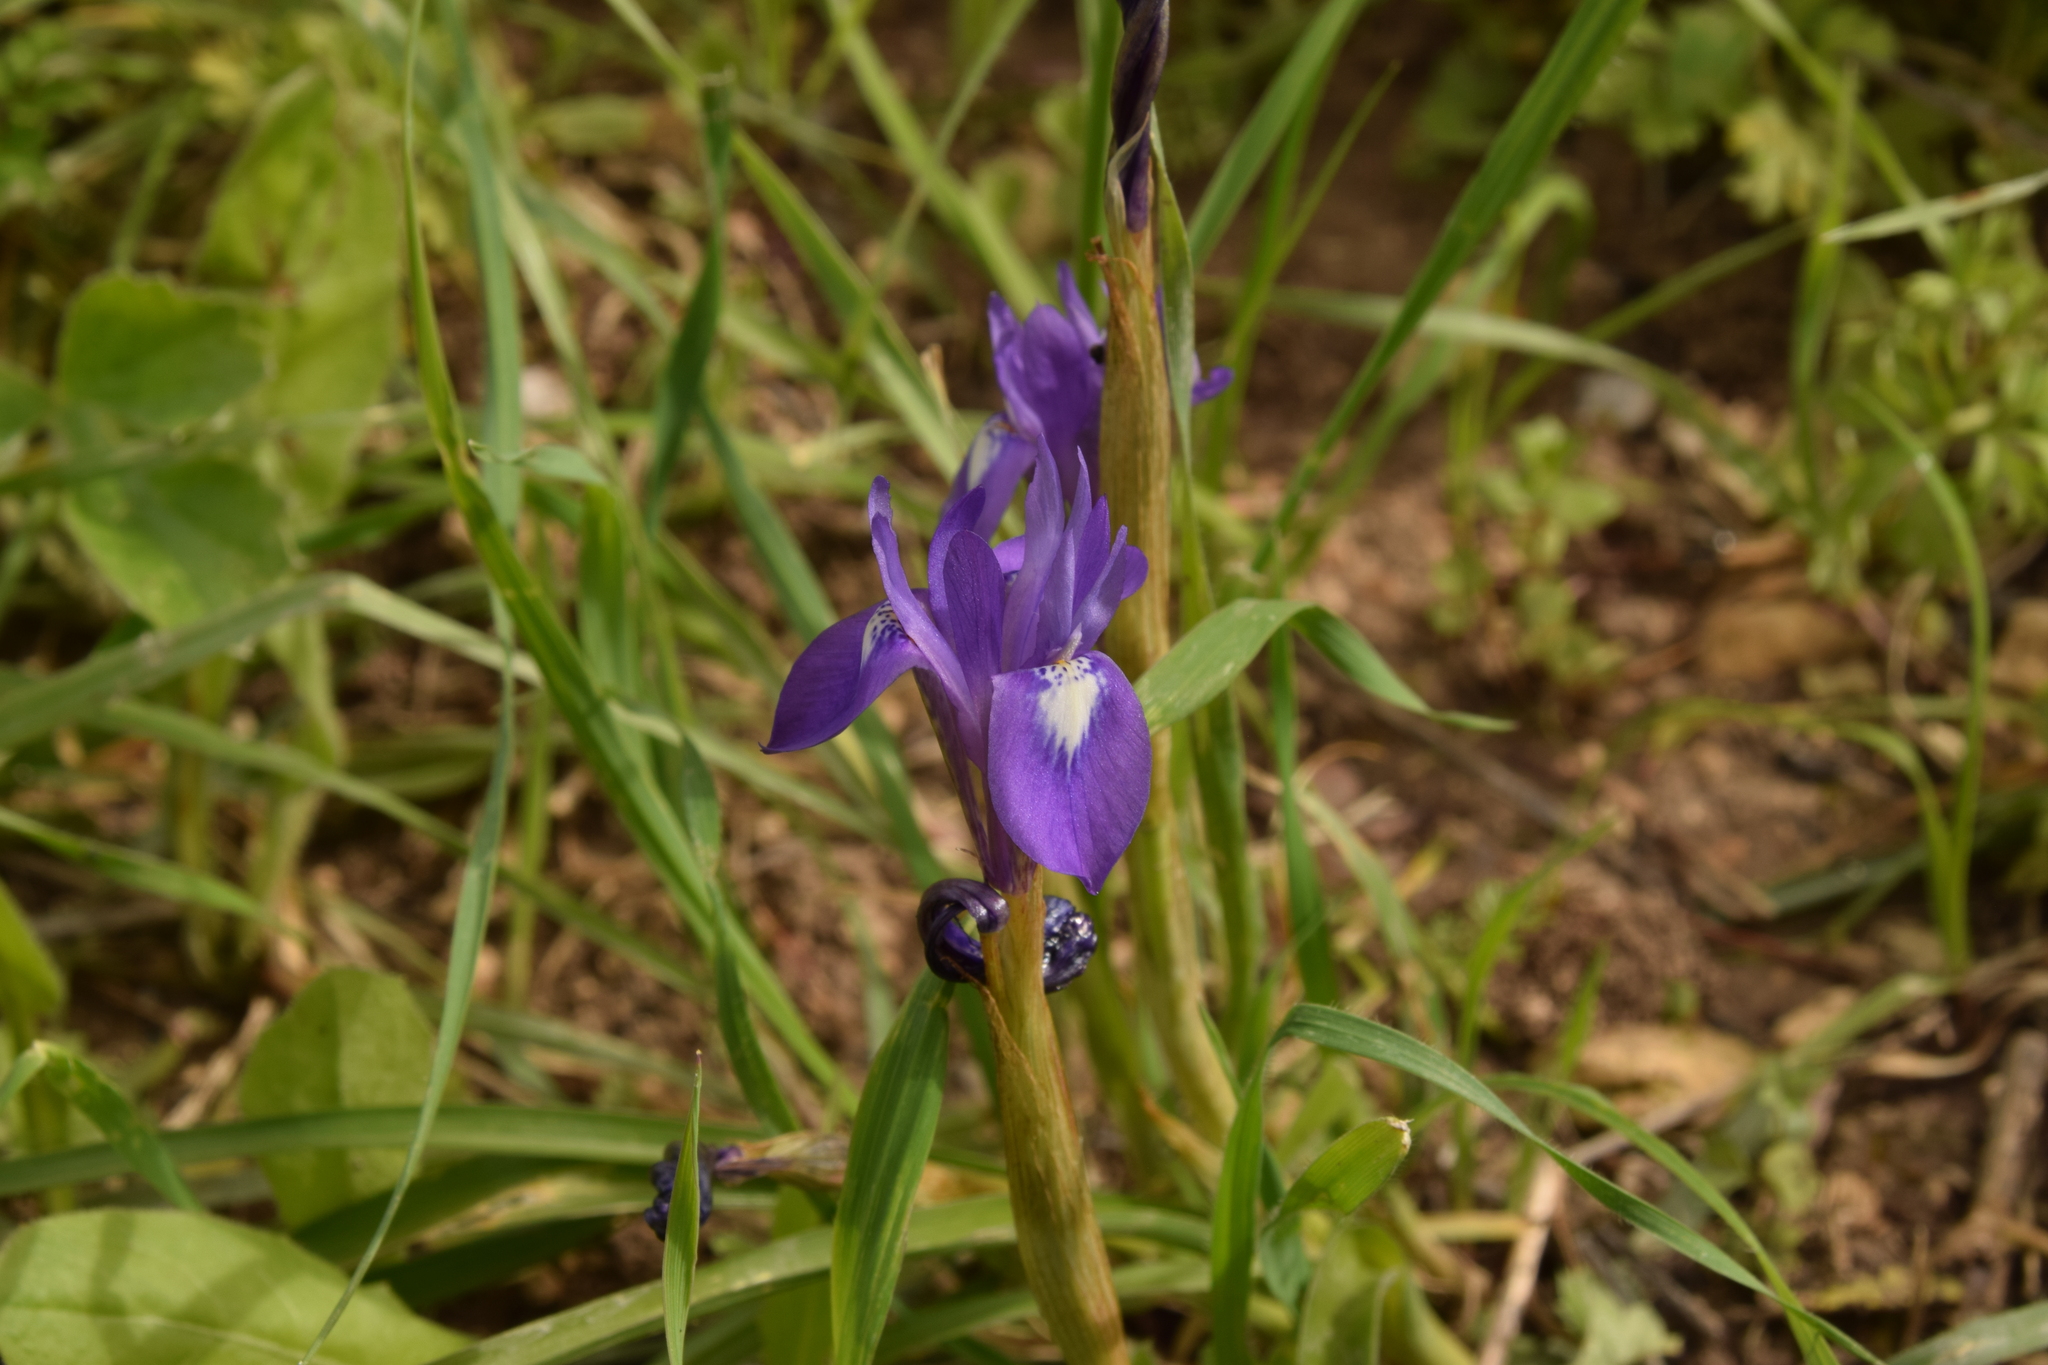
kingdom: Plantae
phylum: Tracheophyta
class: Liliopsida
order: Asparagales
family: Iridaceae
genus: Moraea
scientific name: Moraea sisyrinchium
